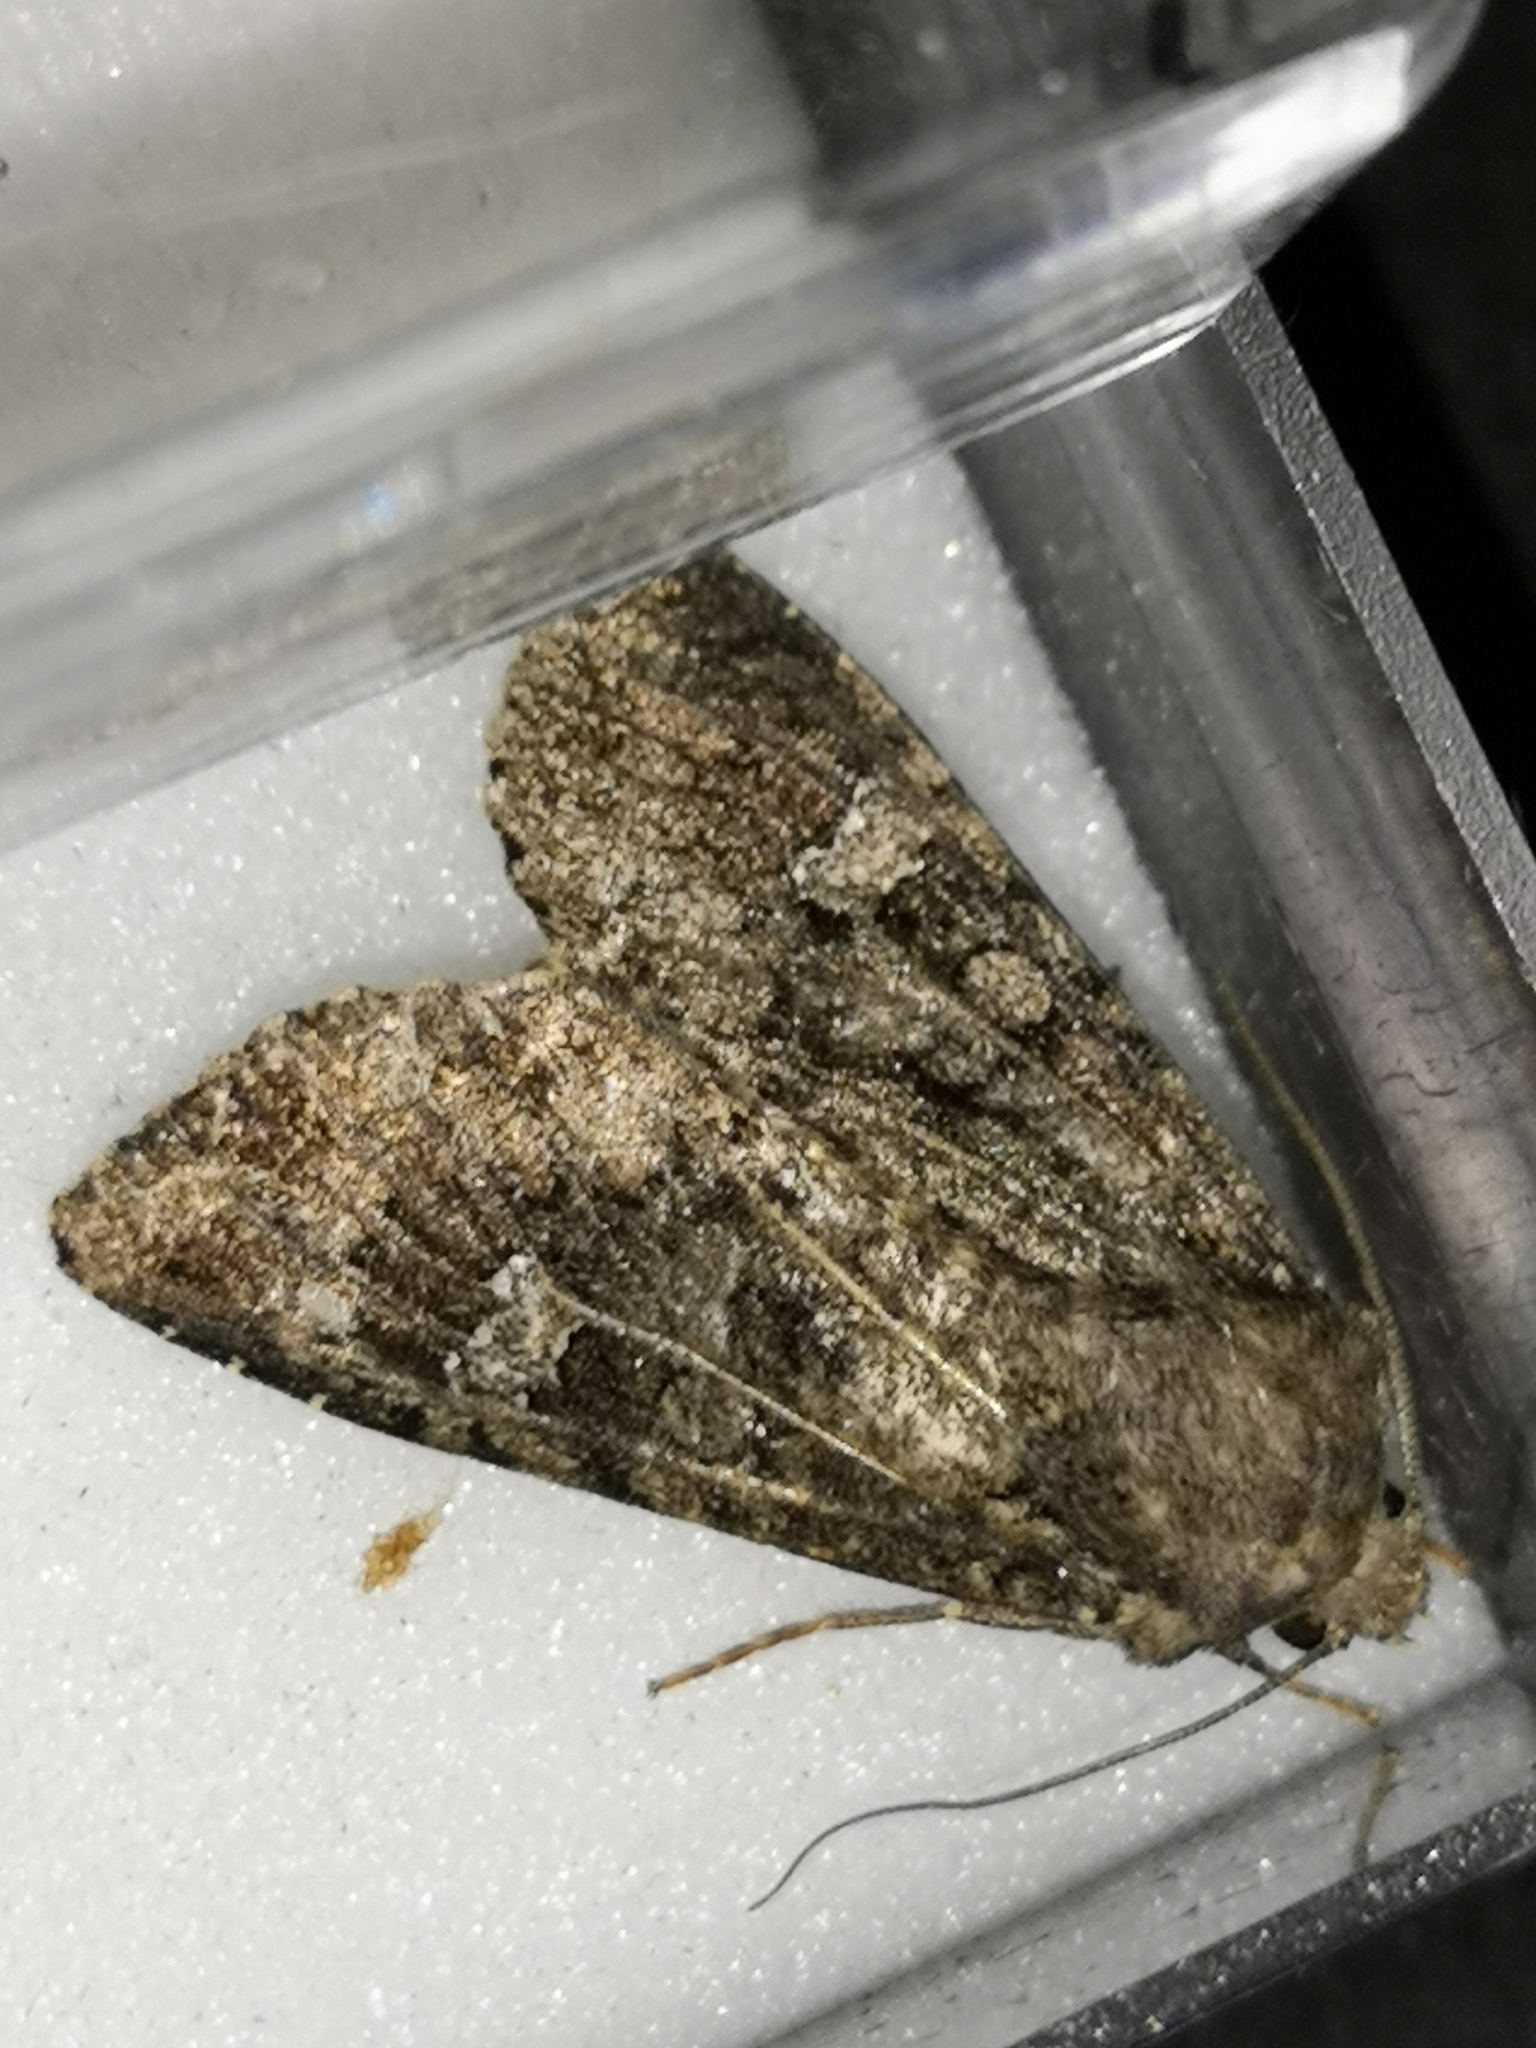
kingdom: Animalia
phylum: Arthropoda
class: Insecta
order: Lepidoptera
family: Noctuidae
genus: Mamestra
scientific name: Mamestra brassicae
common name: Cabbage moth
